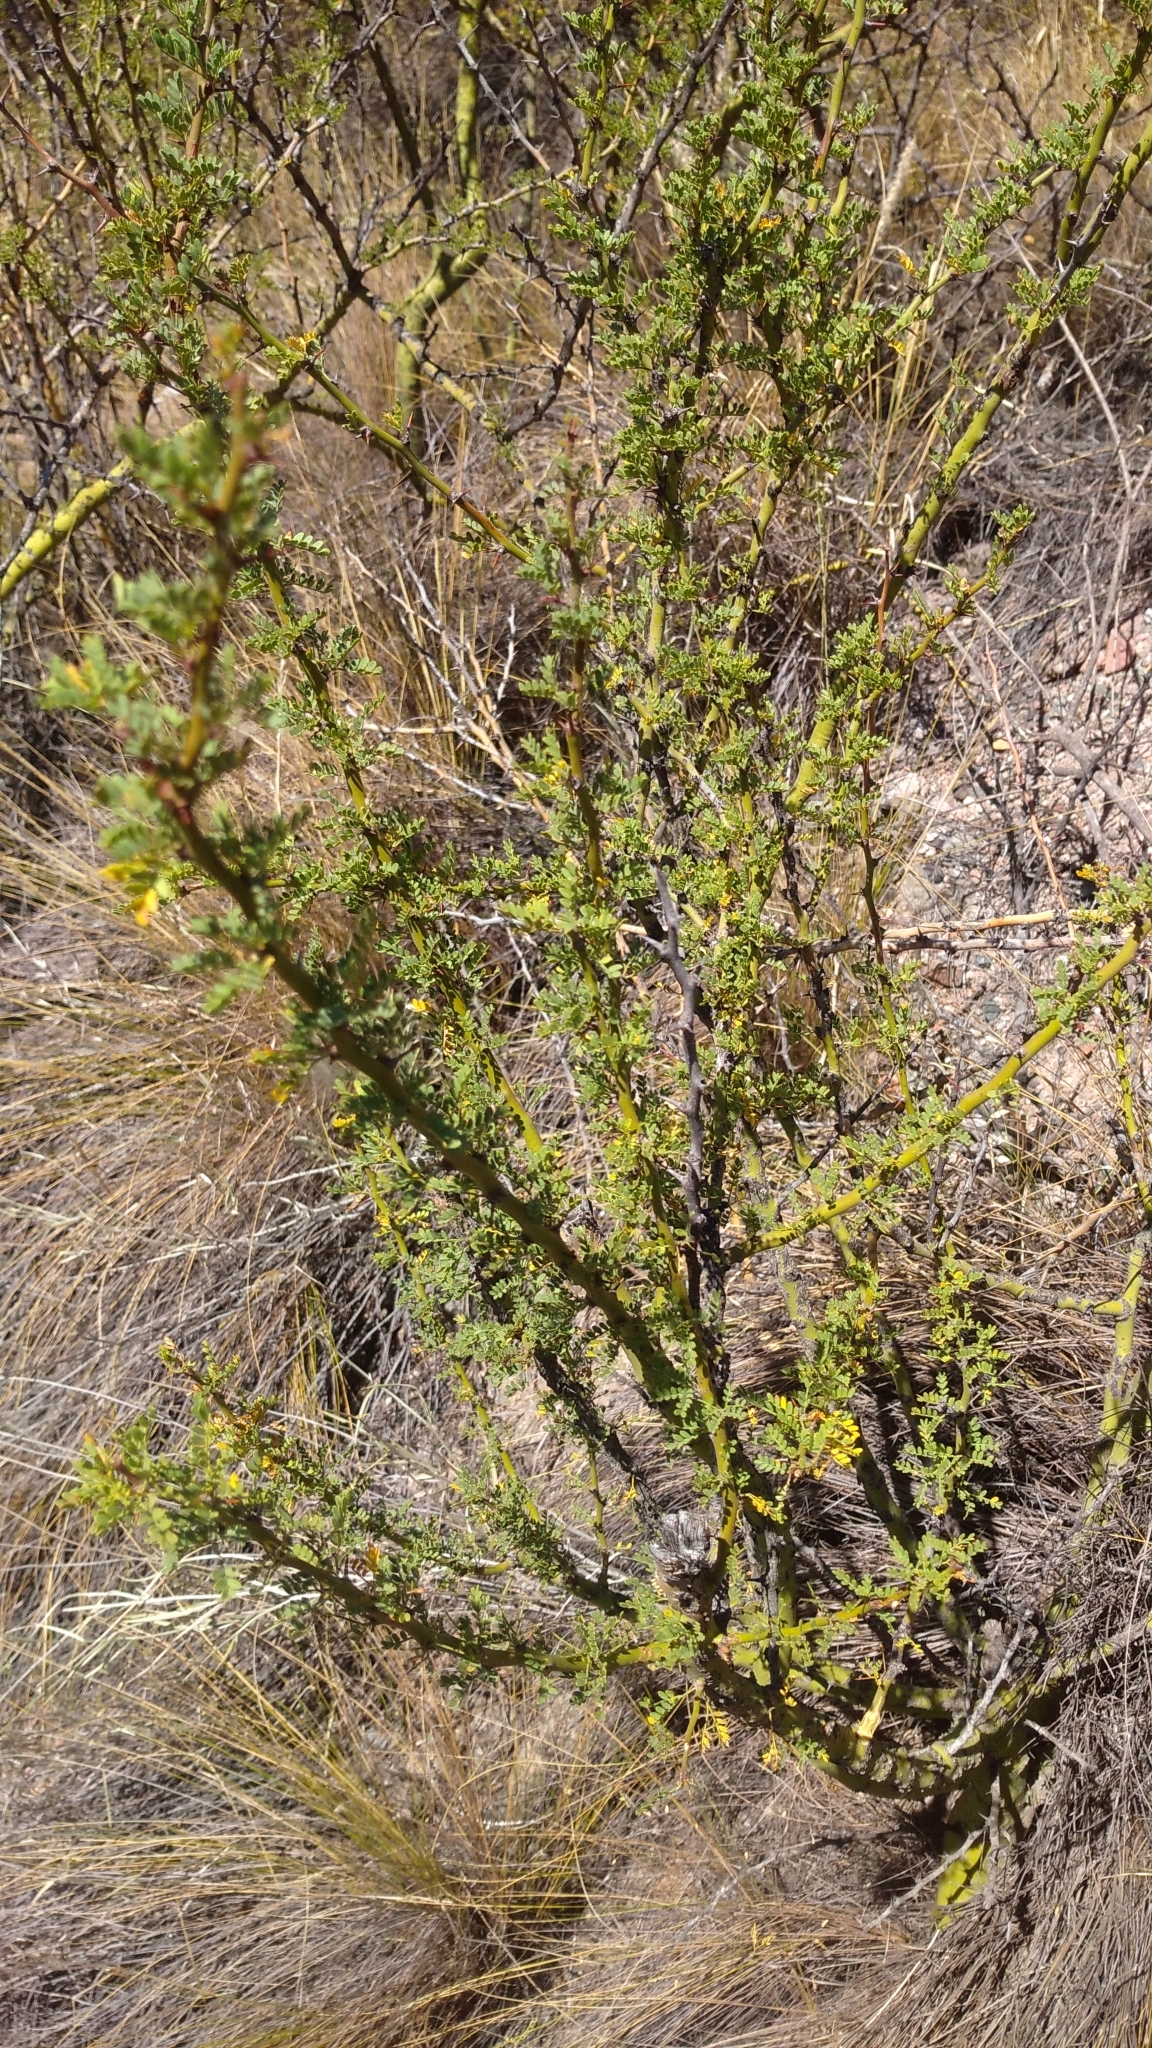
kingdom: Plantae
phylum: Tracheophyta
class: Magnoliopsida
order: Fabales
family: Fabaceae
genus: Parkinsonia
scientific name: Parkinsonia praecox
